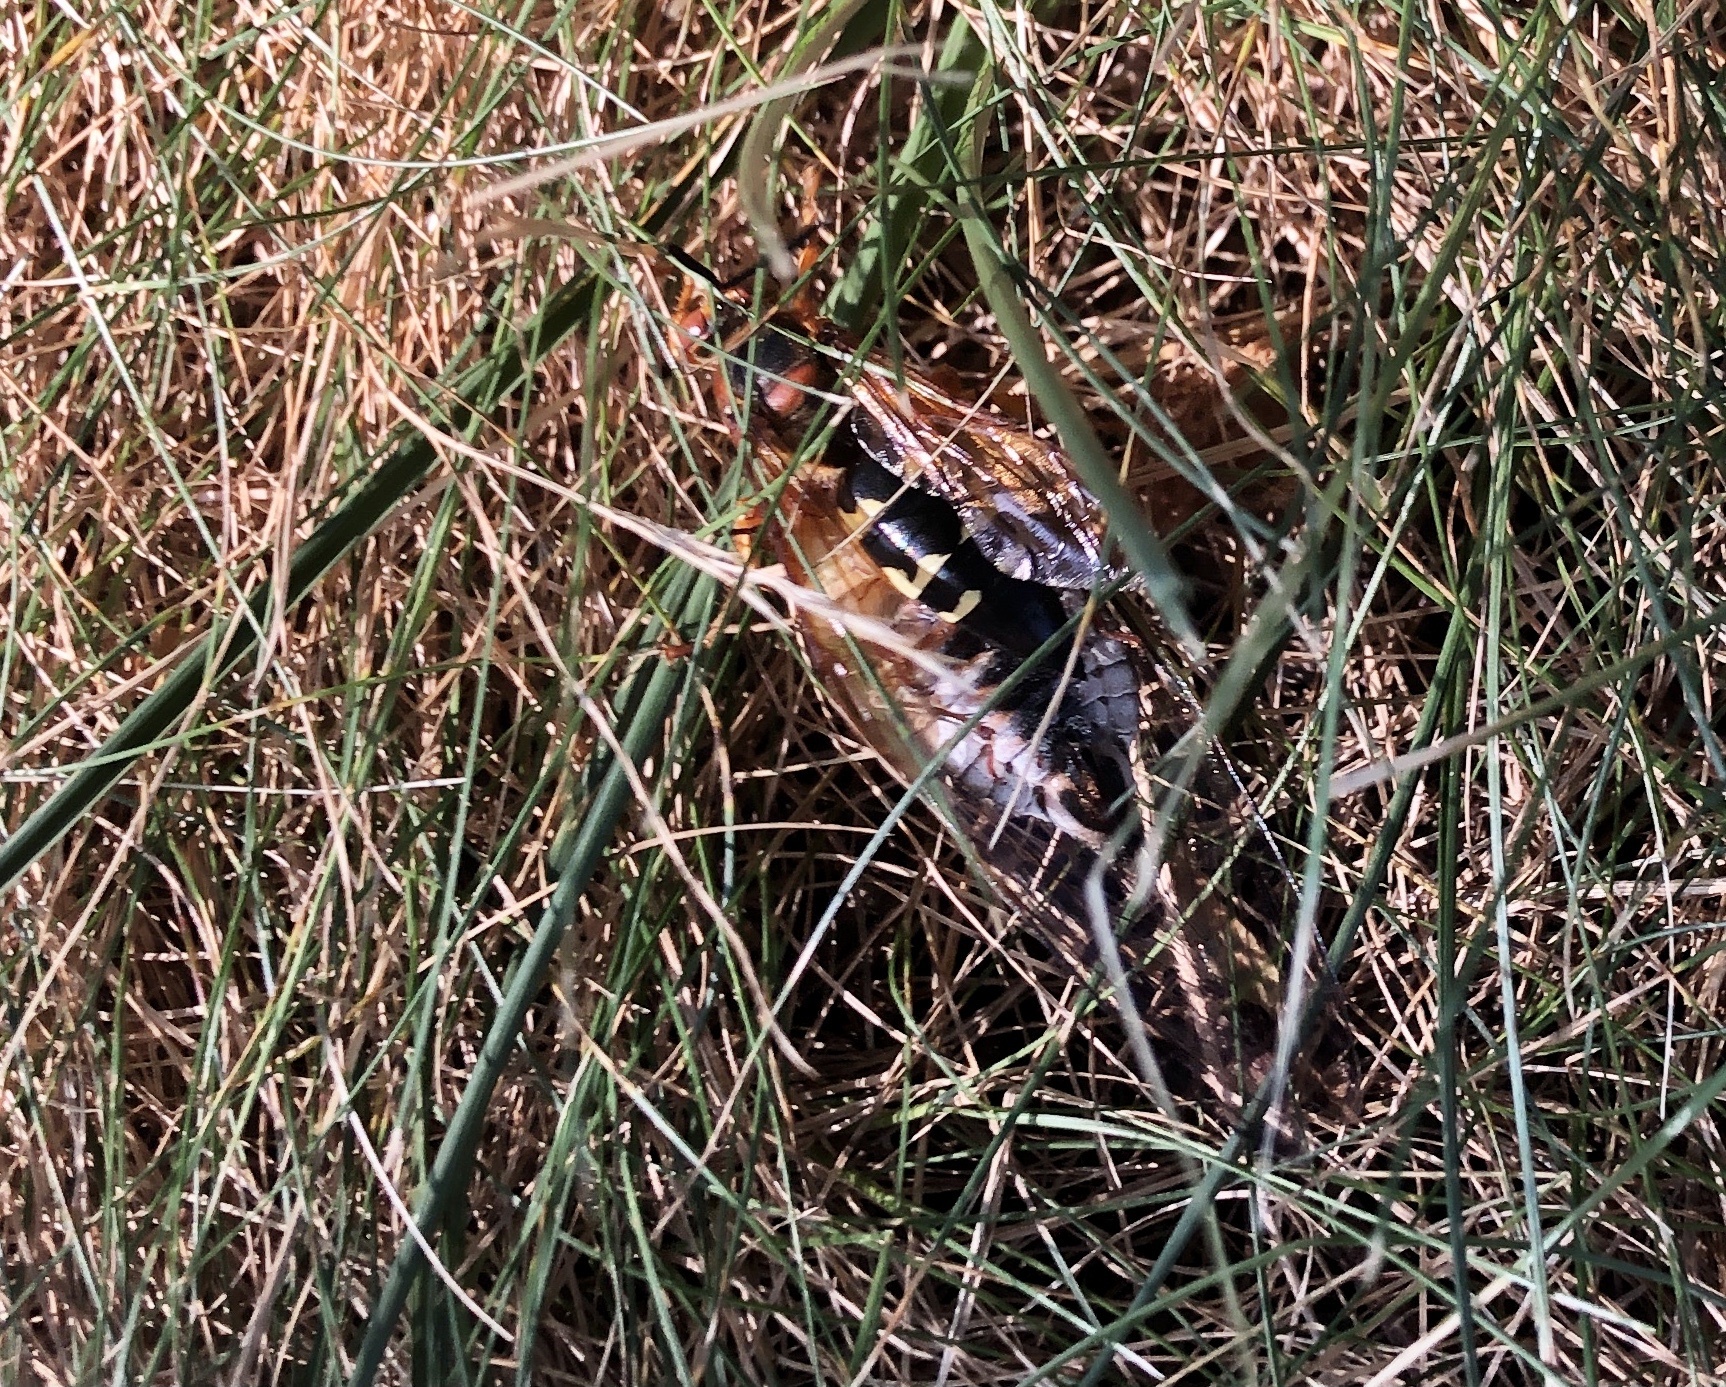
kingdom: Animalia
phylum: Arthropoda
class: Insecta
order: Hymenoptera
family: Crabronidae
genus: Sphecius
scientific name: Sphecius speciosus
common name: Cicada killer
